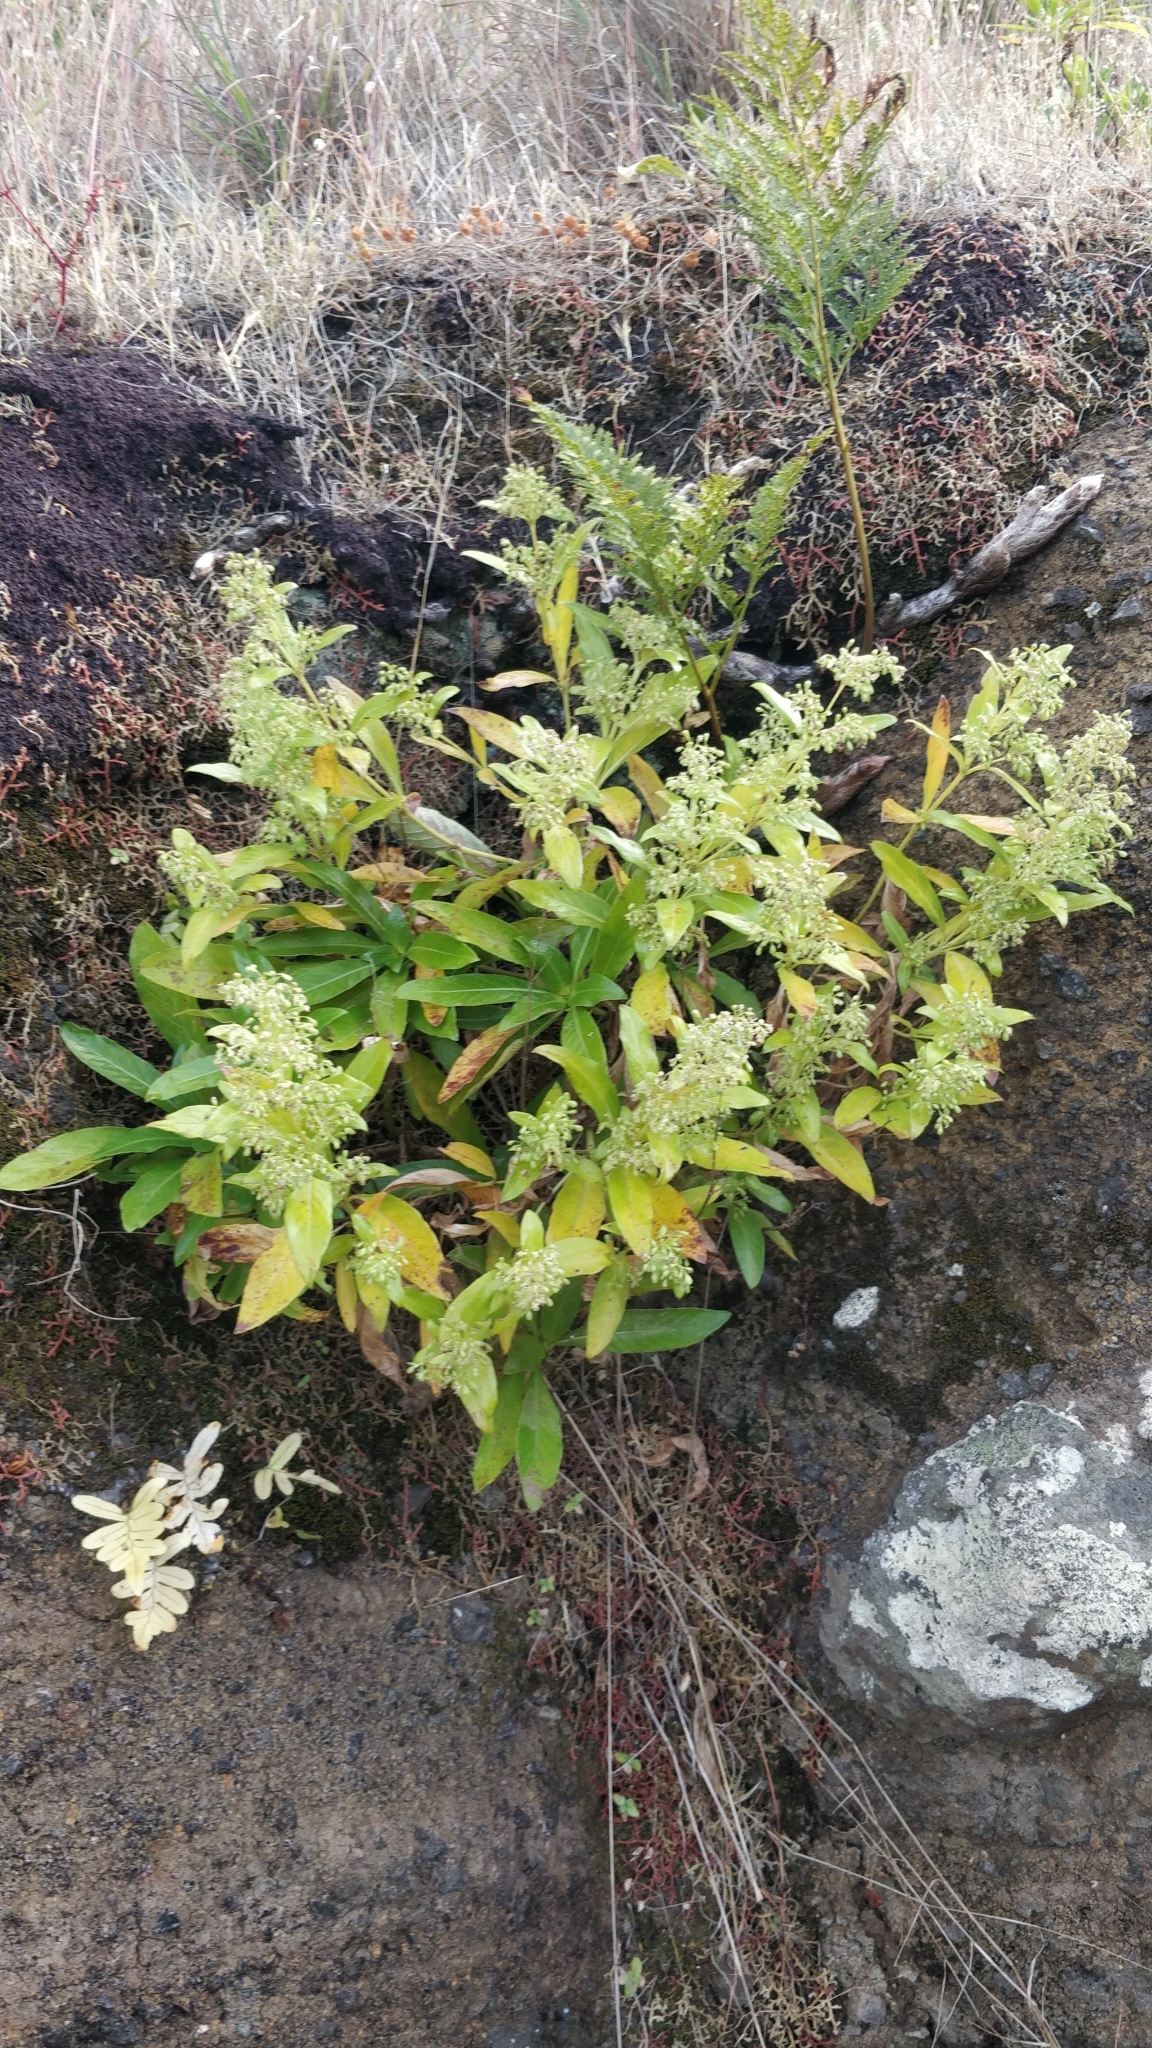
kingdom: Plantae
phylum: Tracheophyta
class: Magnoliopsida
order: Gentianales
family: Rubiaceae
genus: Phyllis
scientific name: Phyllis nobla
